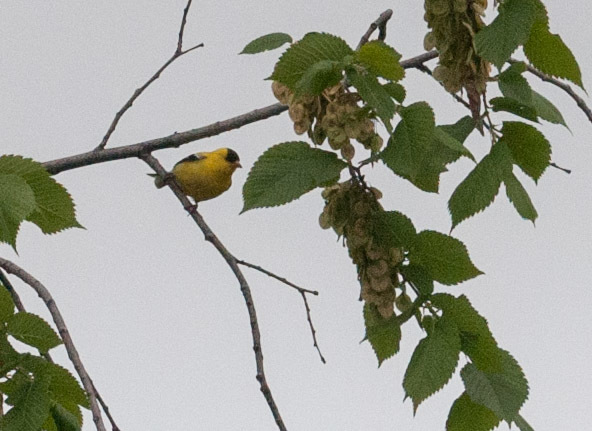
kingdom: Animalia
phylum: Chordata
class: Aves
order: Passeriformes
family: Fringillidae
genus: Spinus
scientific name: Spinus tristis
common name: American goldfinch
